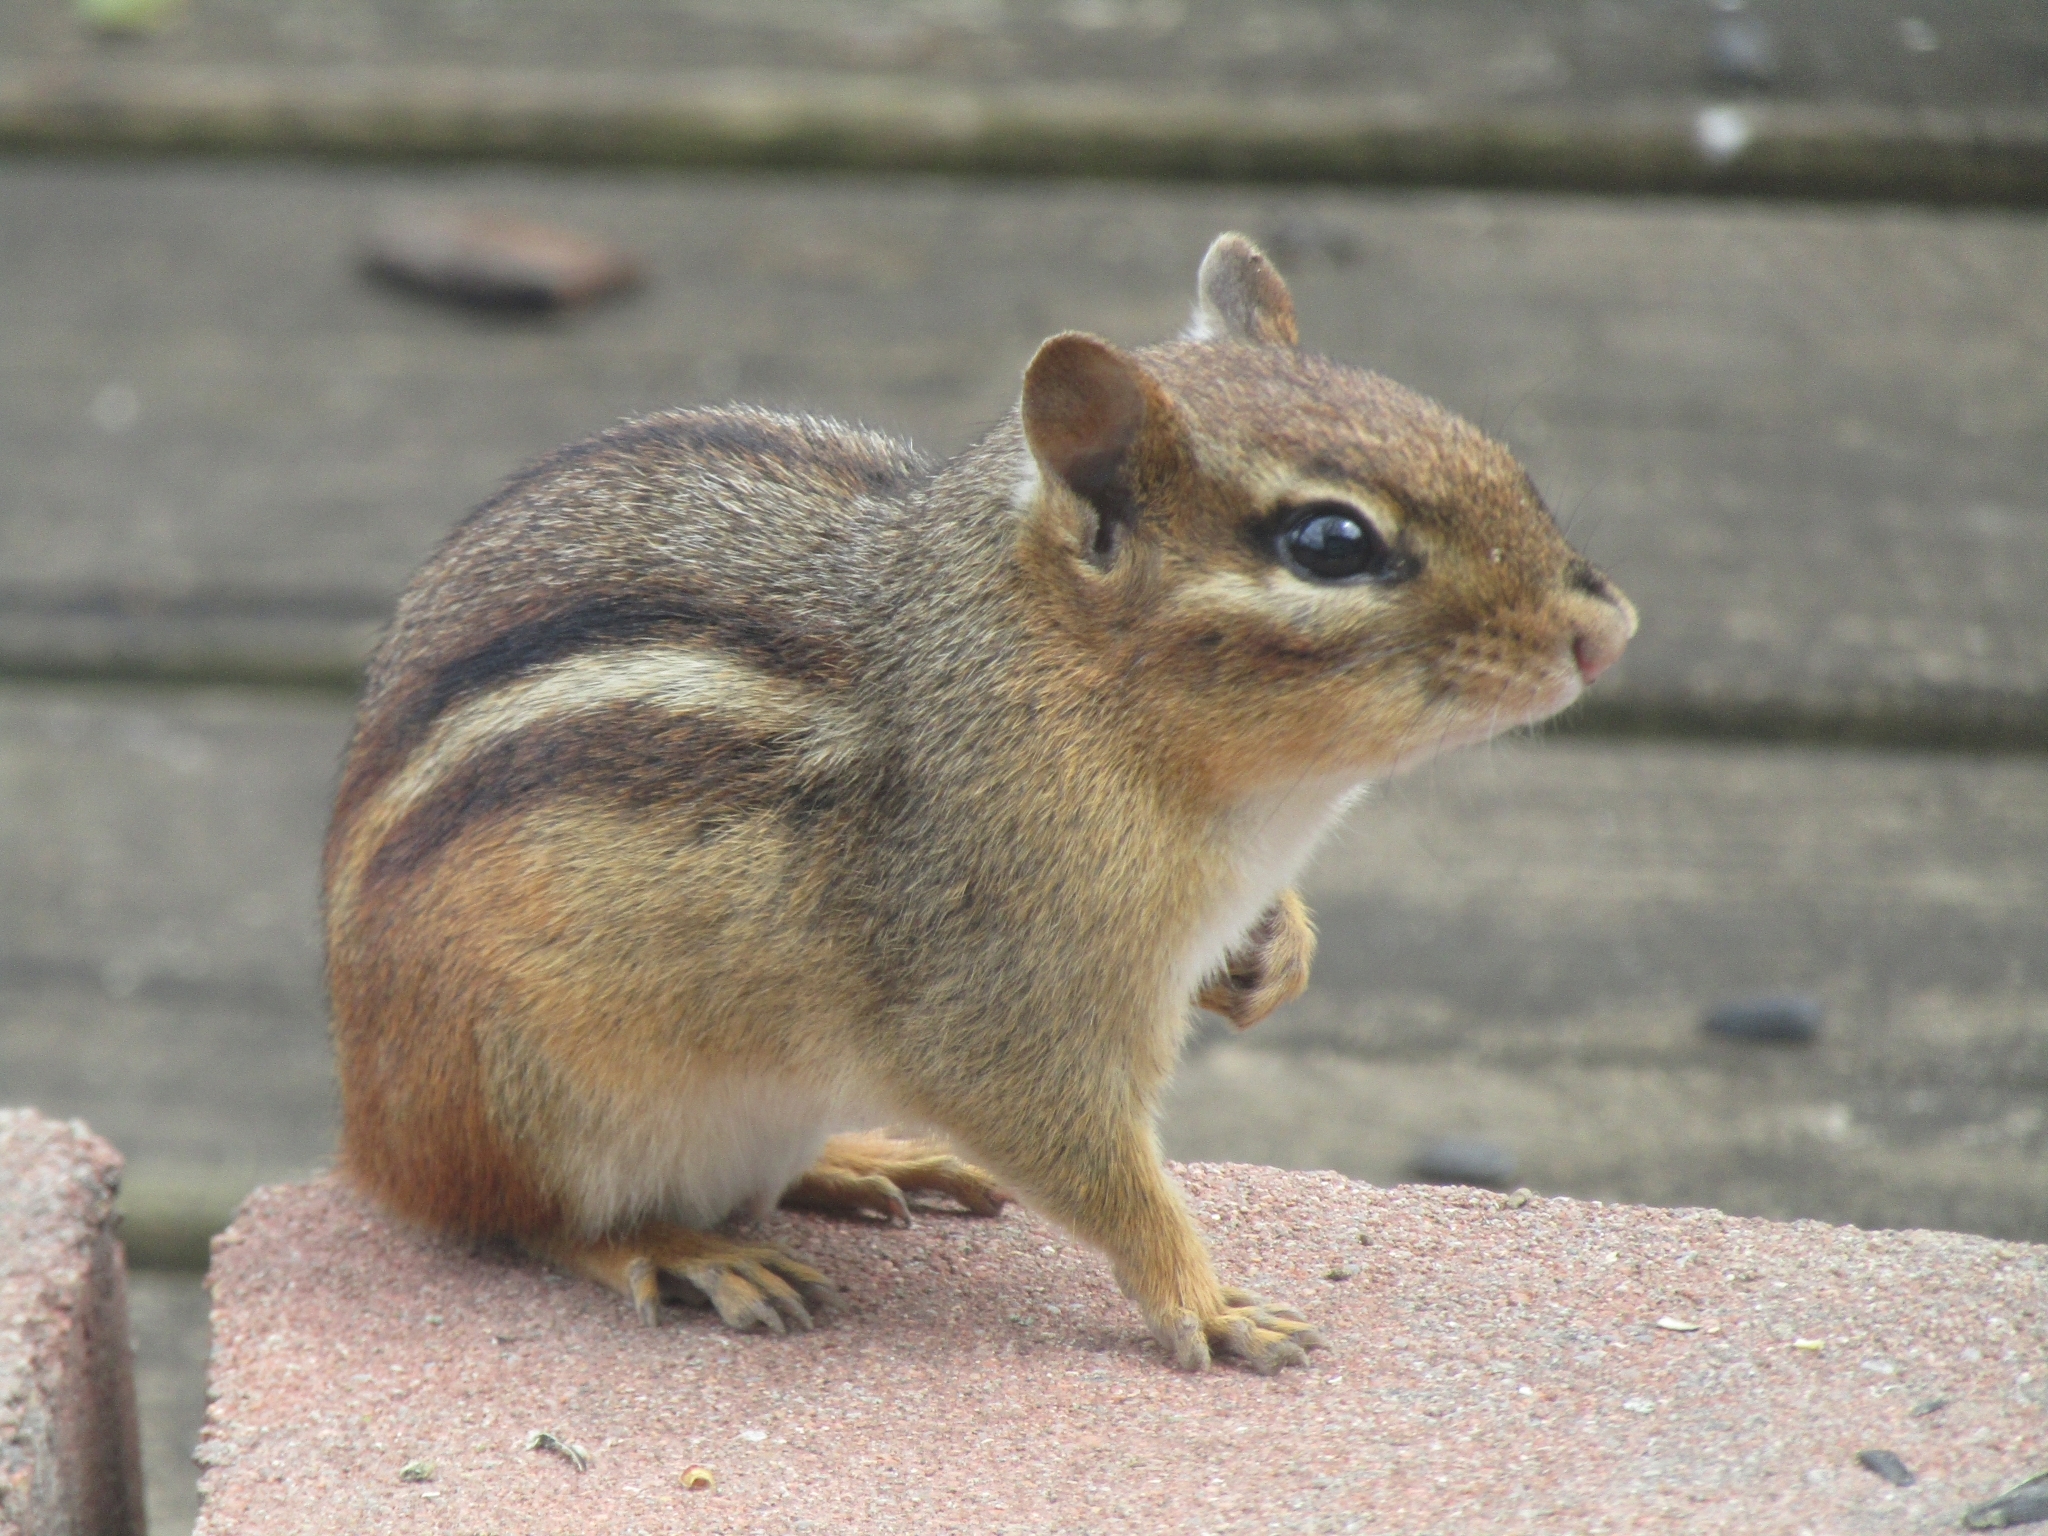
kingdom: Animalia
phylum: Chordata
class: Mammalia
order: Rodentia
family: Sciuridae
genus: Tamias
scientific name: Tamias striatus
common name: Eastern chipmunk
